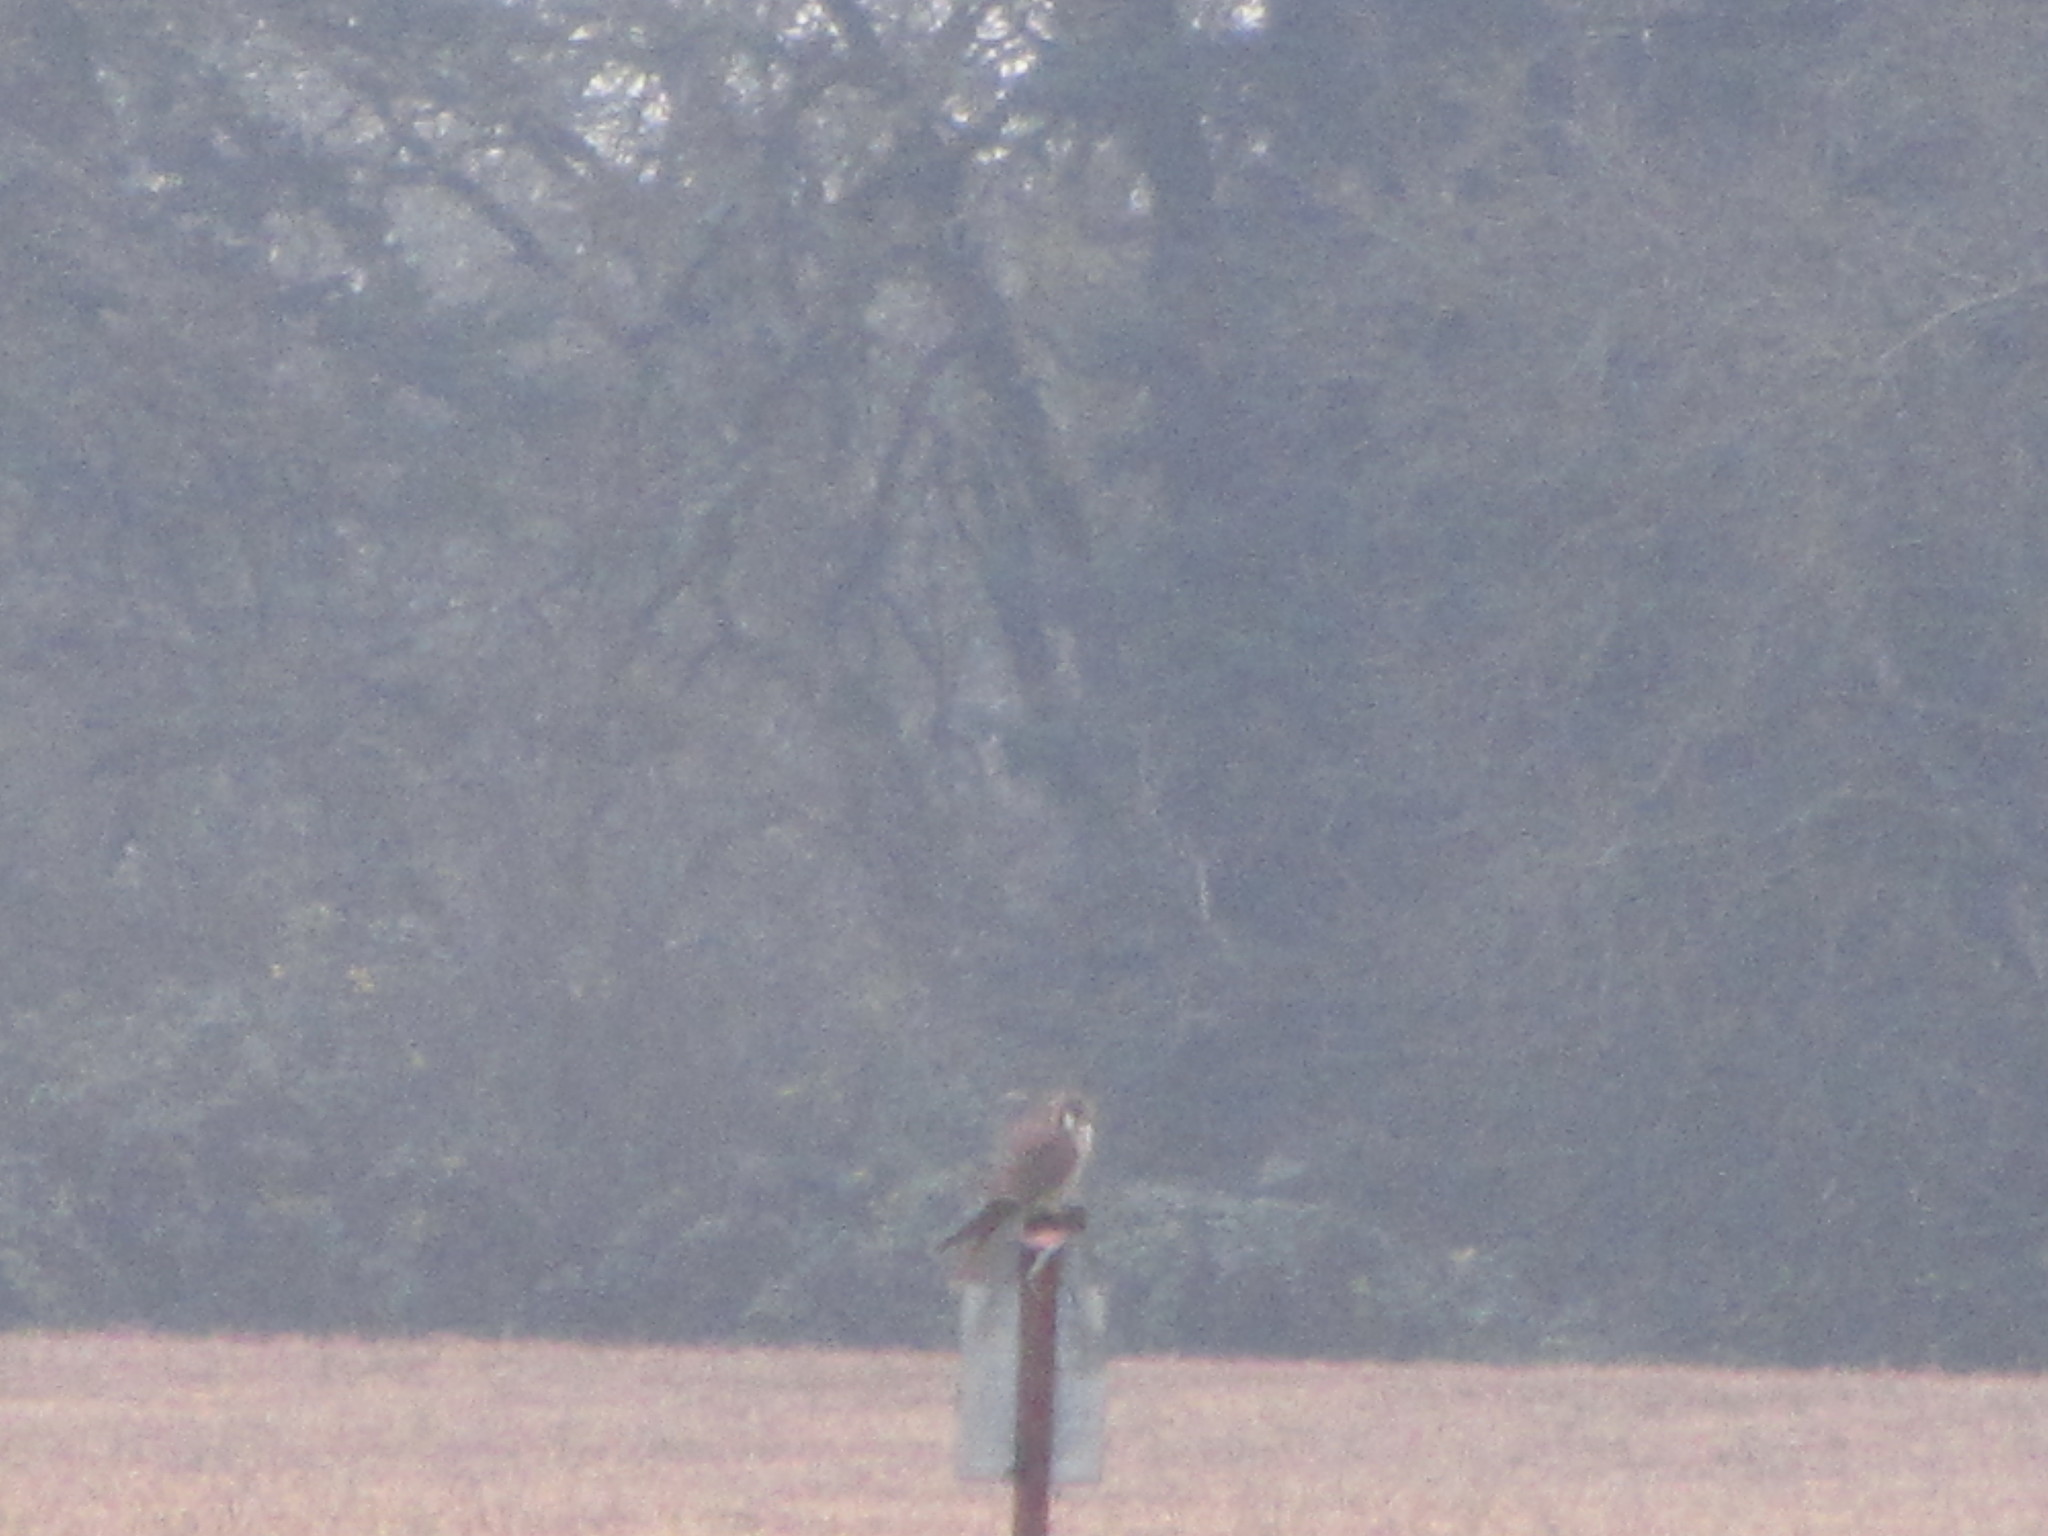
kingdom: Animalia
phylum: Chordata
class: Aves
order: Falconiformes
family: Falconidae
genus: Falco
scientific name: Falco sparverius
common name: American kestrel
